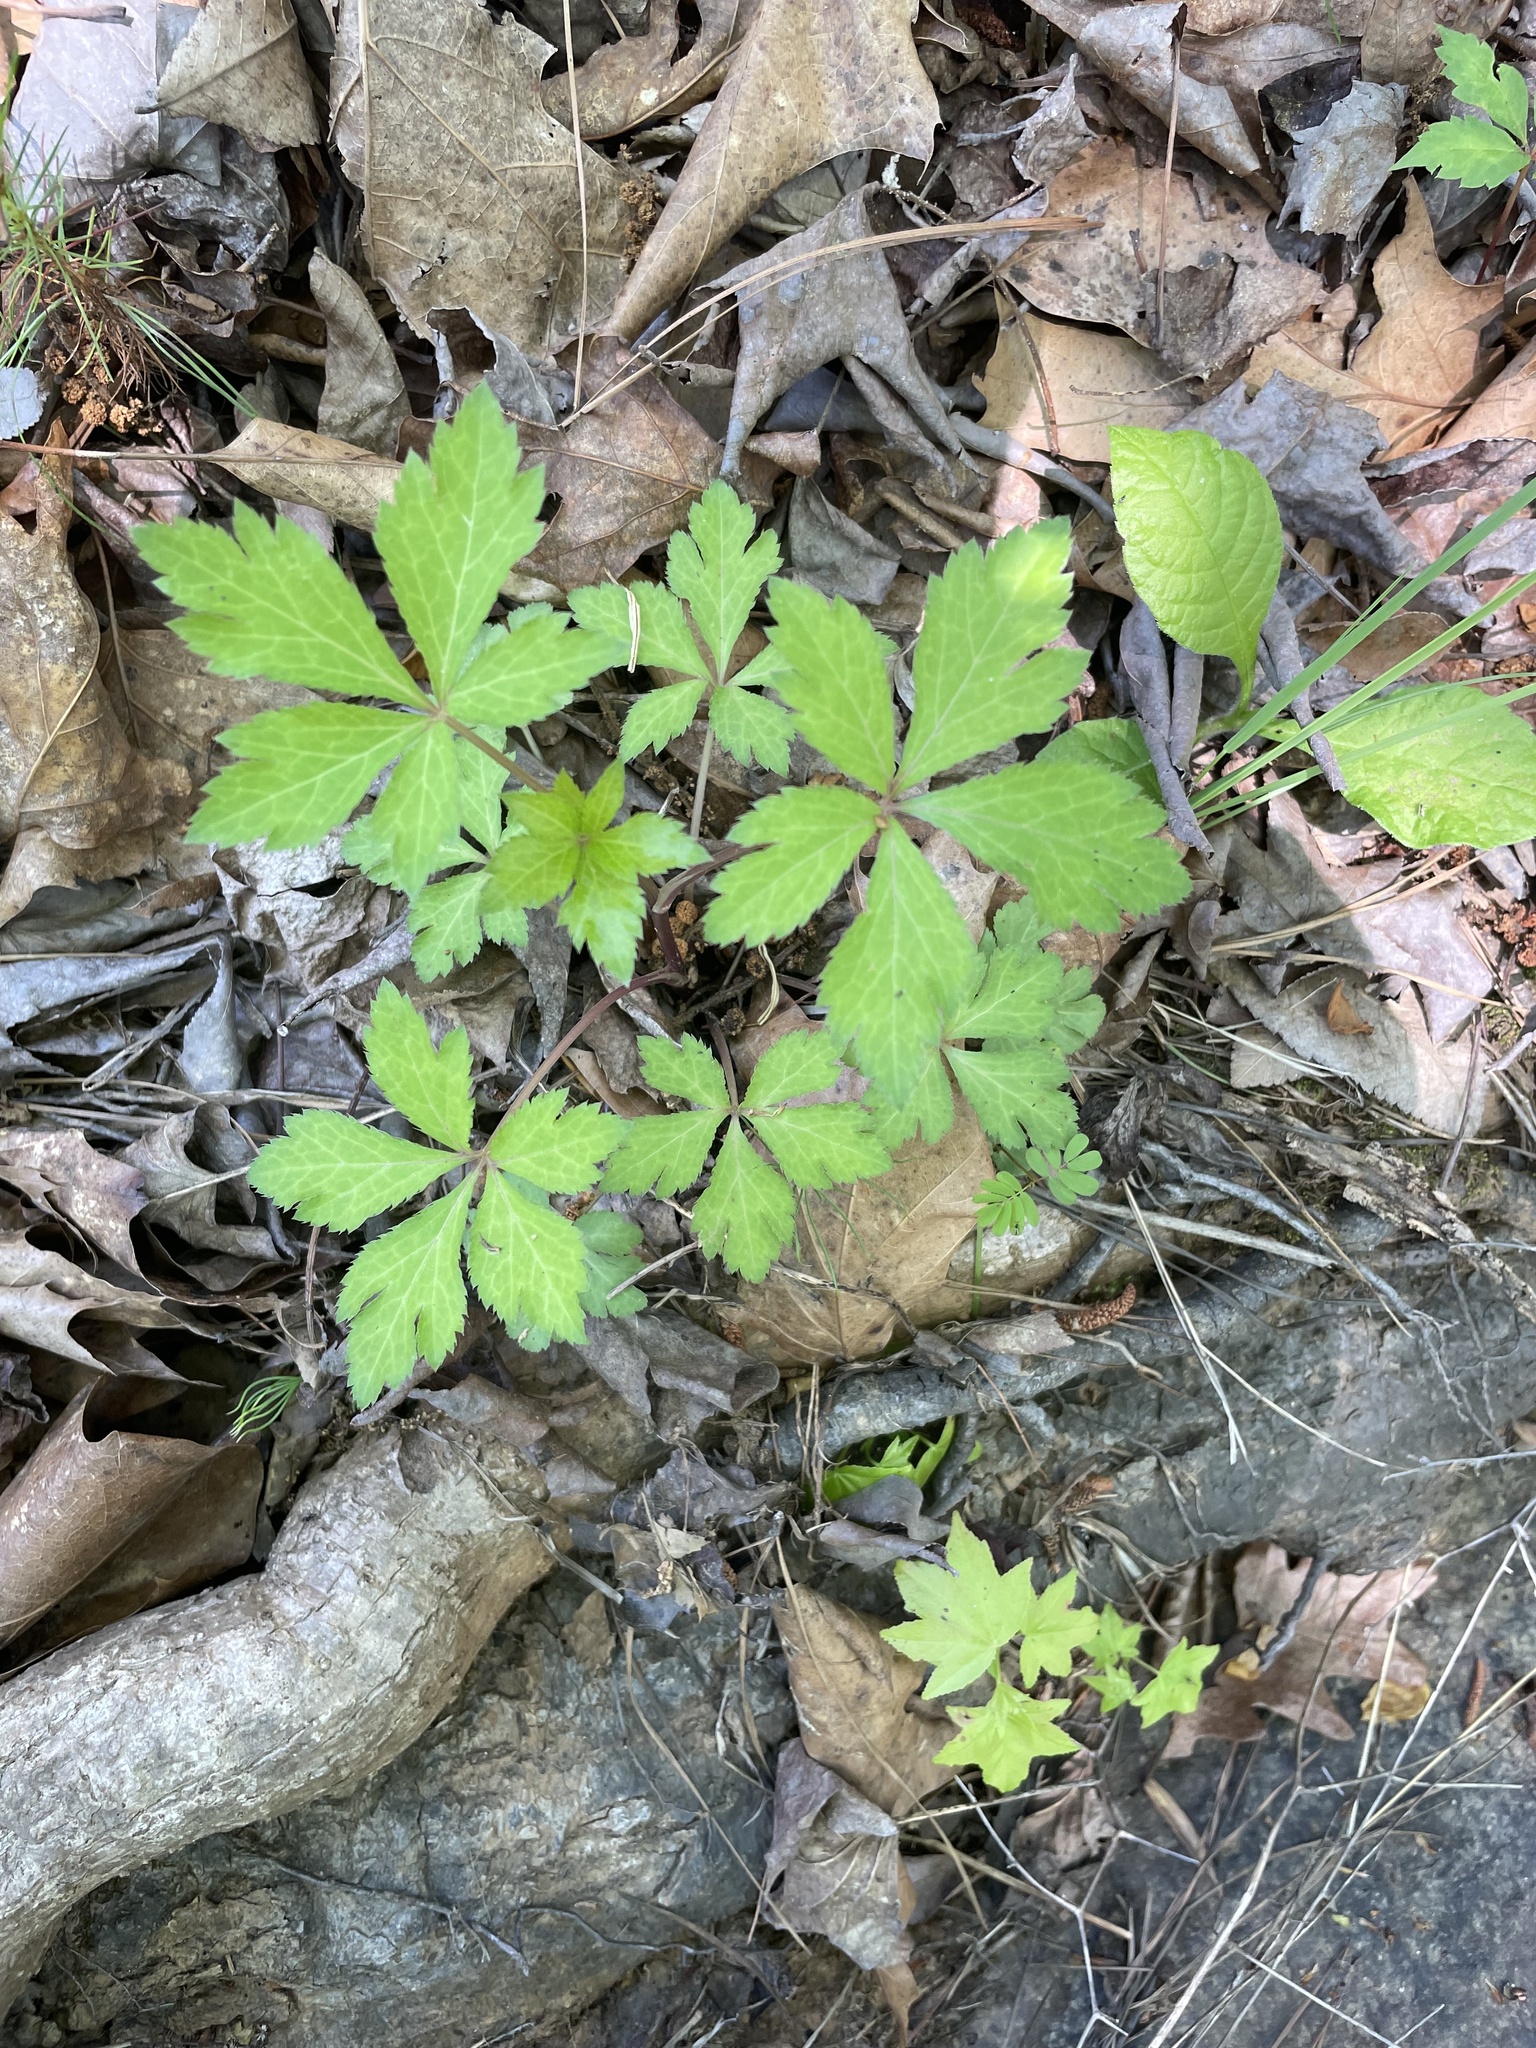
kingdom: Plantae
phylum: Tracheophyta
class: Magnoliopsida
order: Apiales
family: Apiaceae
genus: Sanicula
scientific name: Sanicula canadensis
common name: Canada sanicle
